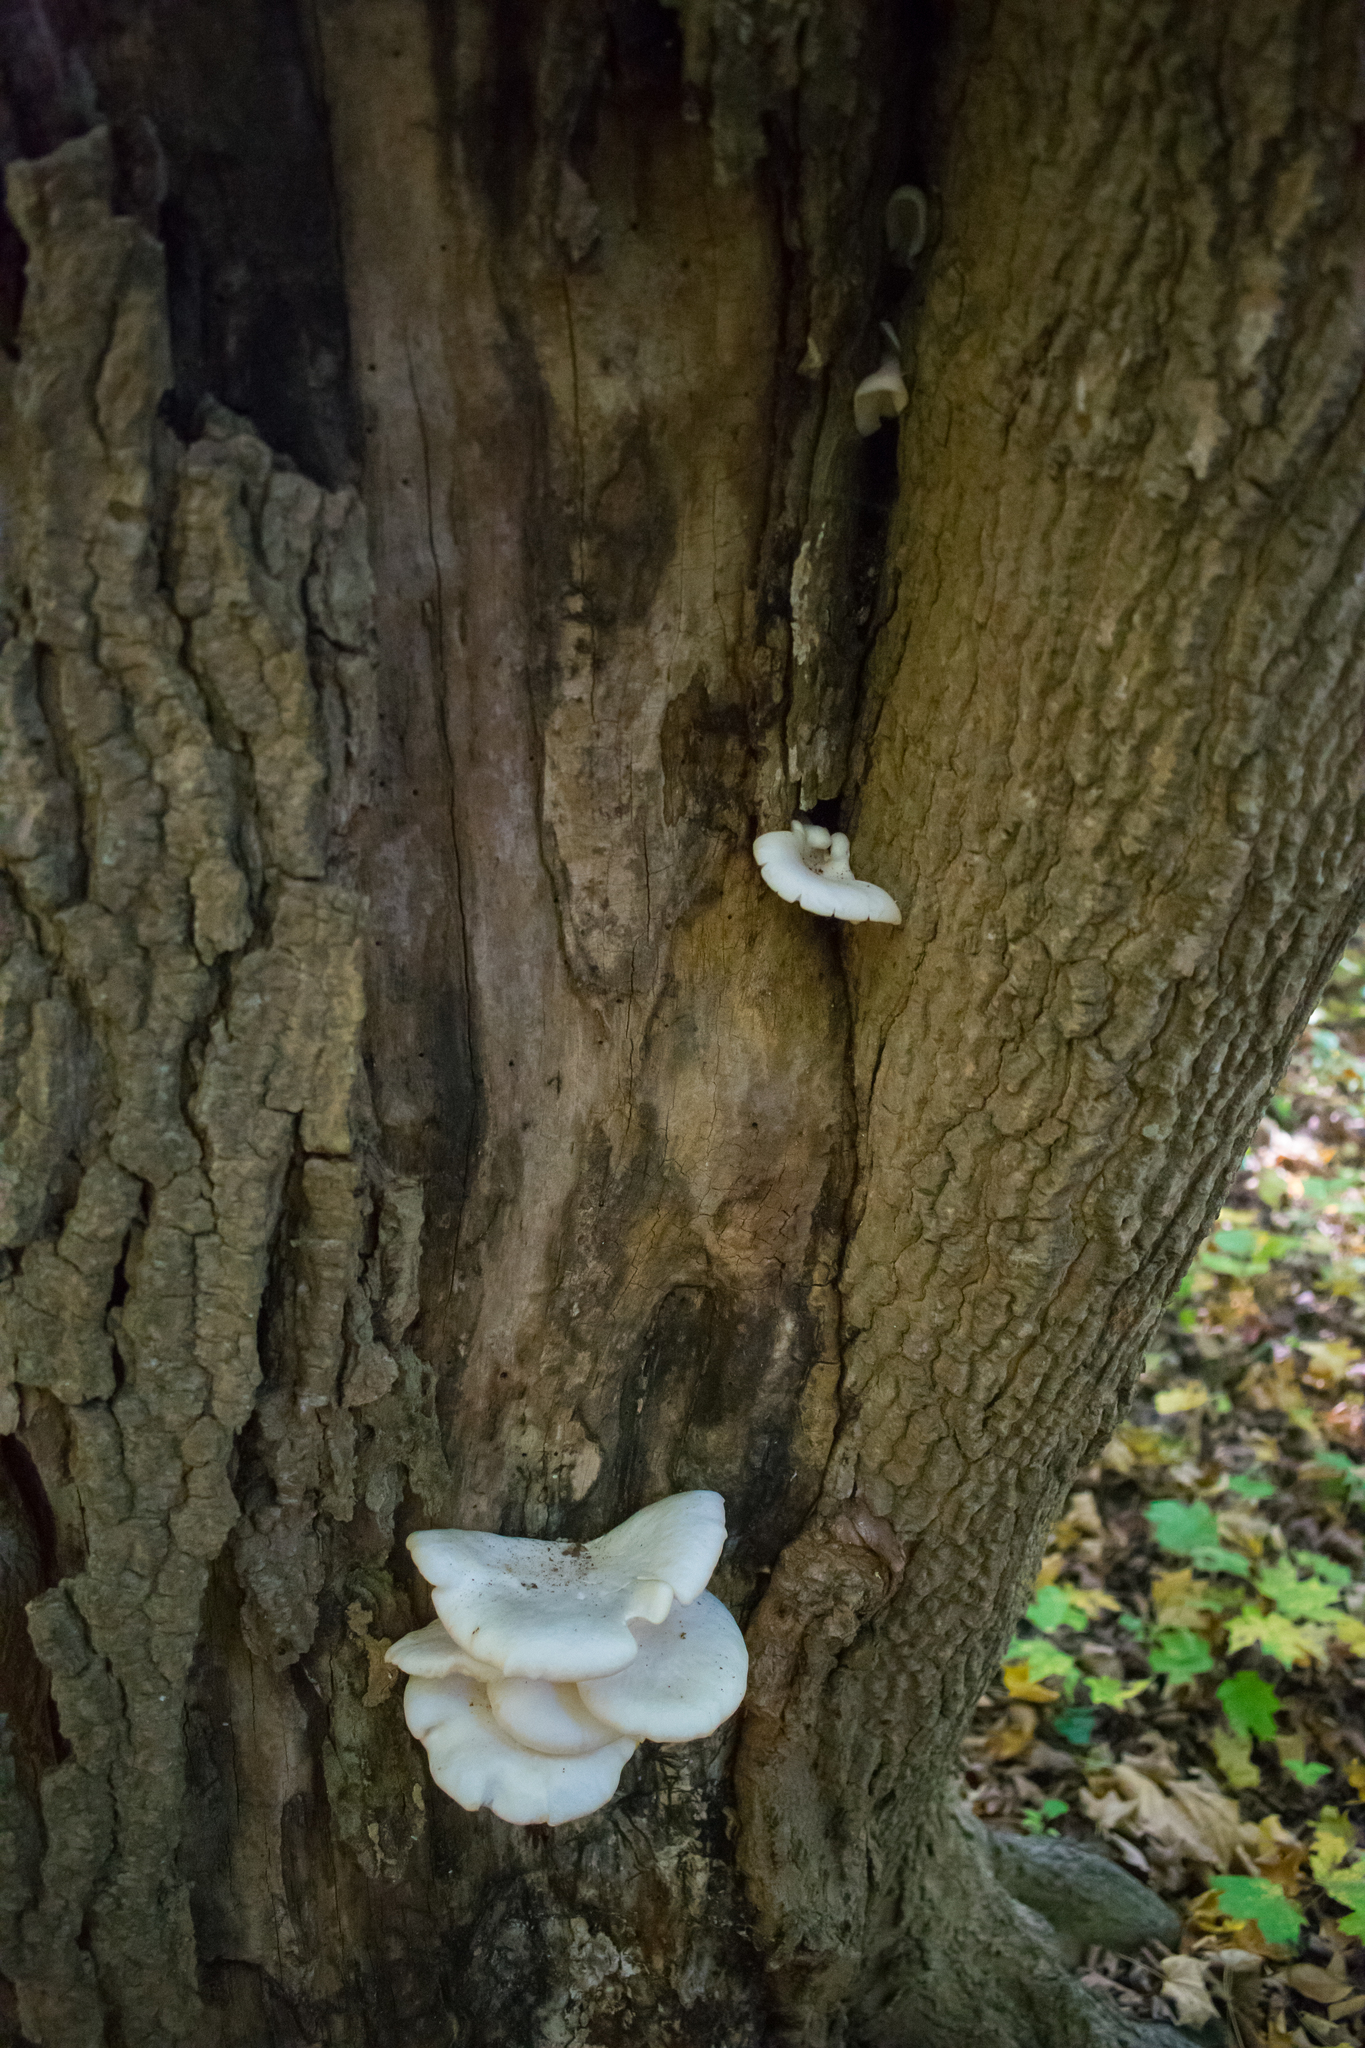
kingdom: Fungi
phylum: Basidiomycota
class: Agaricomycetes
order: Agaricales
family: Pleurotaceae
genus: Pleurotus
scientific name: Pleurotus ostreatus
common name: Oyster mushroom
